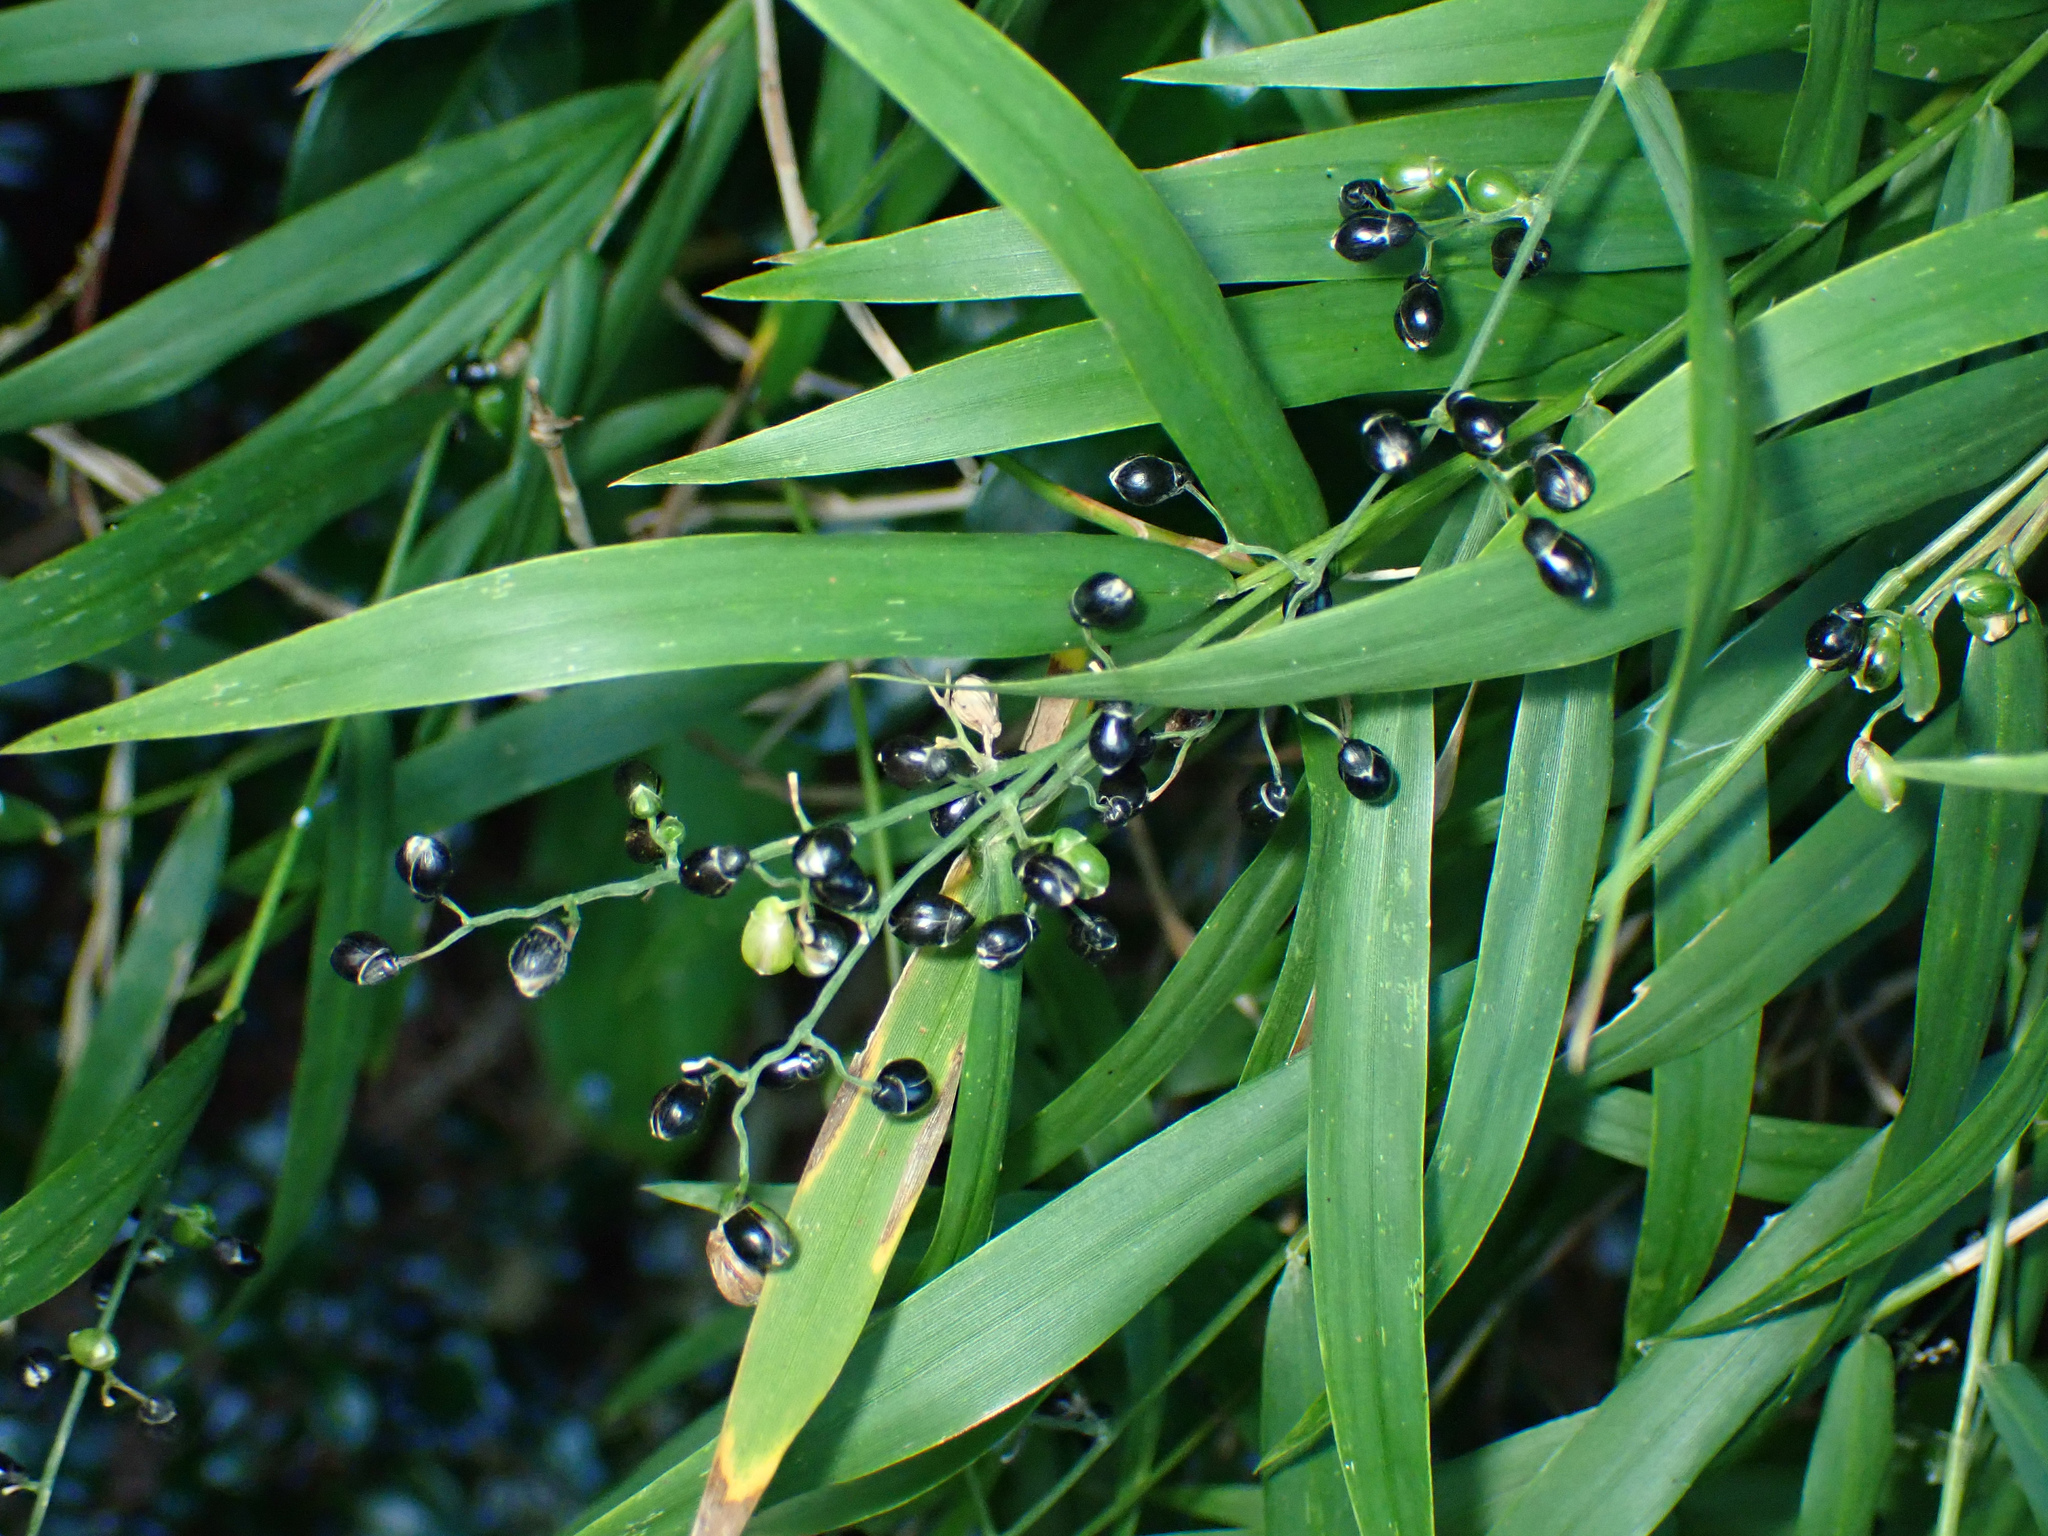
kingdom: Plantae
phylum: Tracheophyta
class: Liliopsida
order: Poales
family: Poaceae
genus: Lasiacis
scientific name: Lasiacis divaricata
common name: Smallcane
